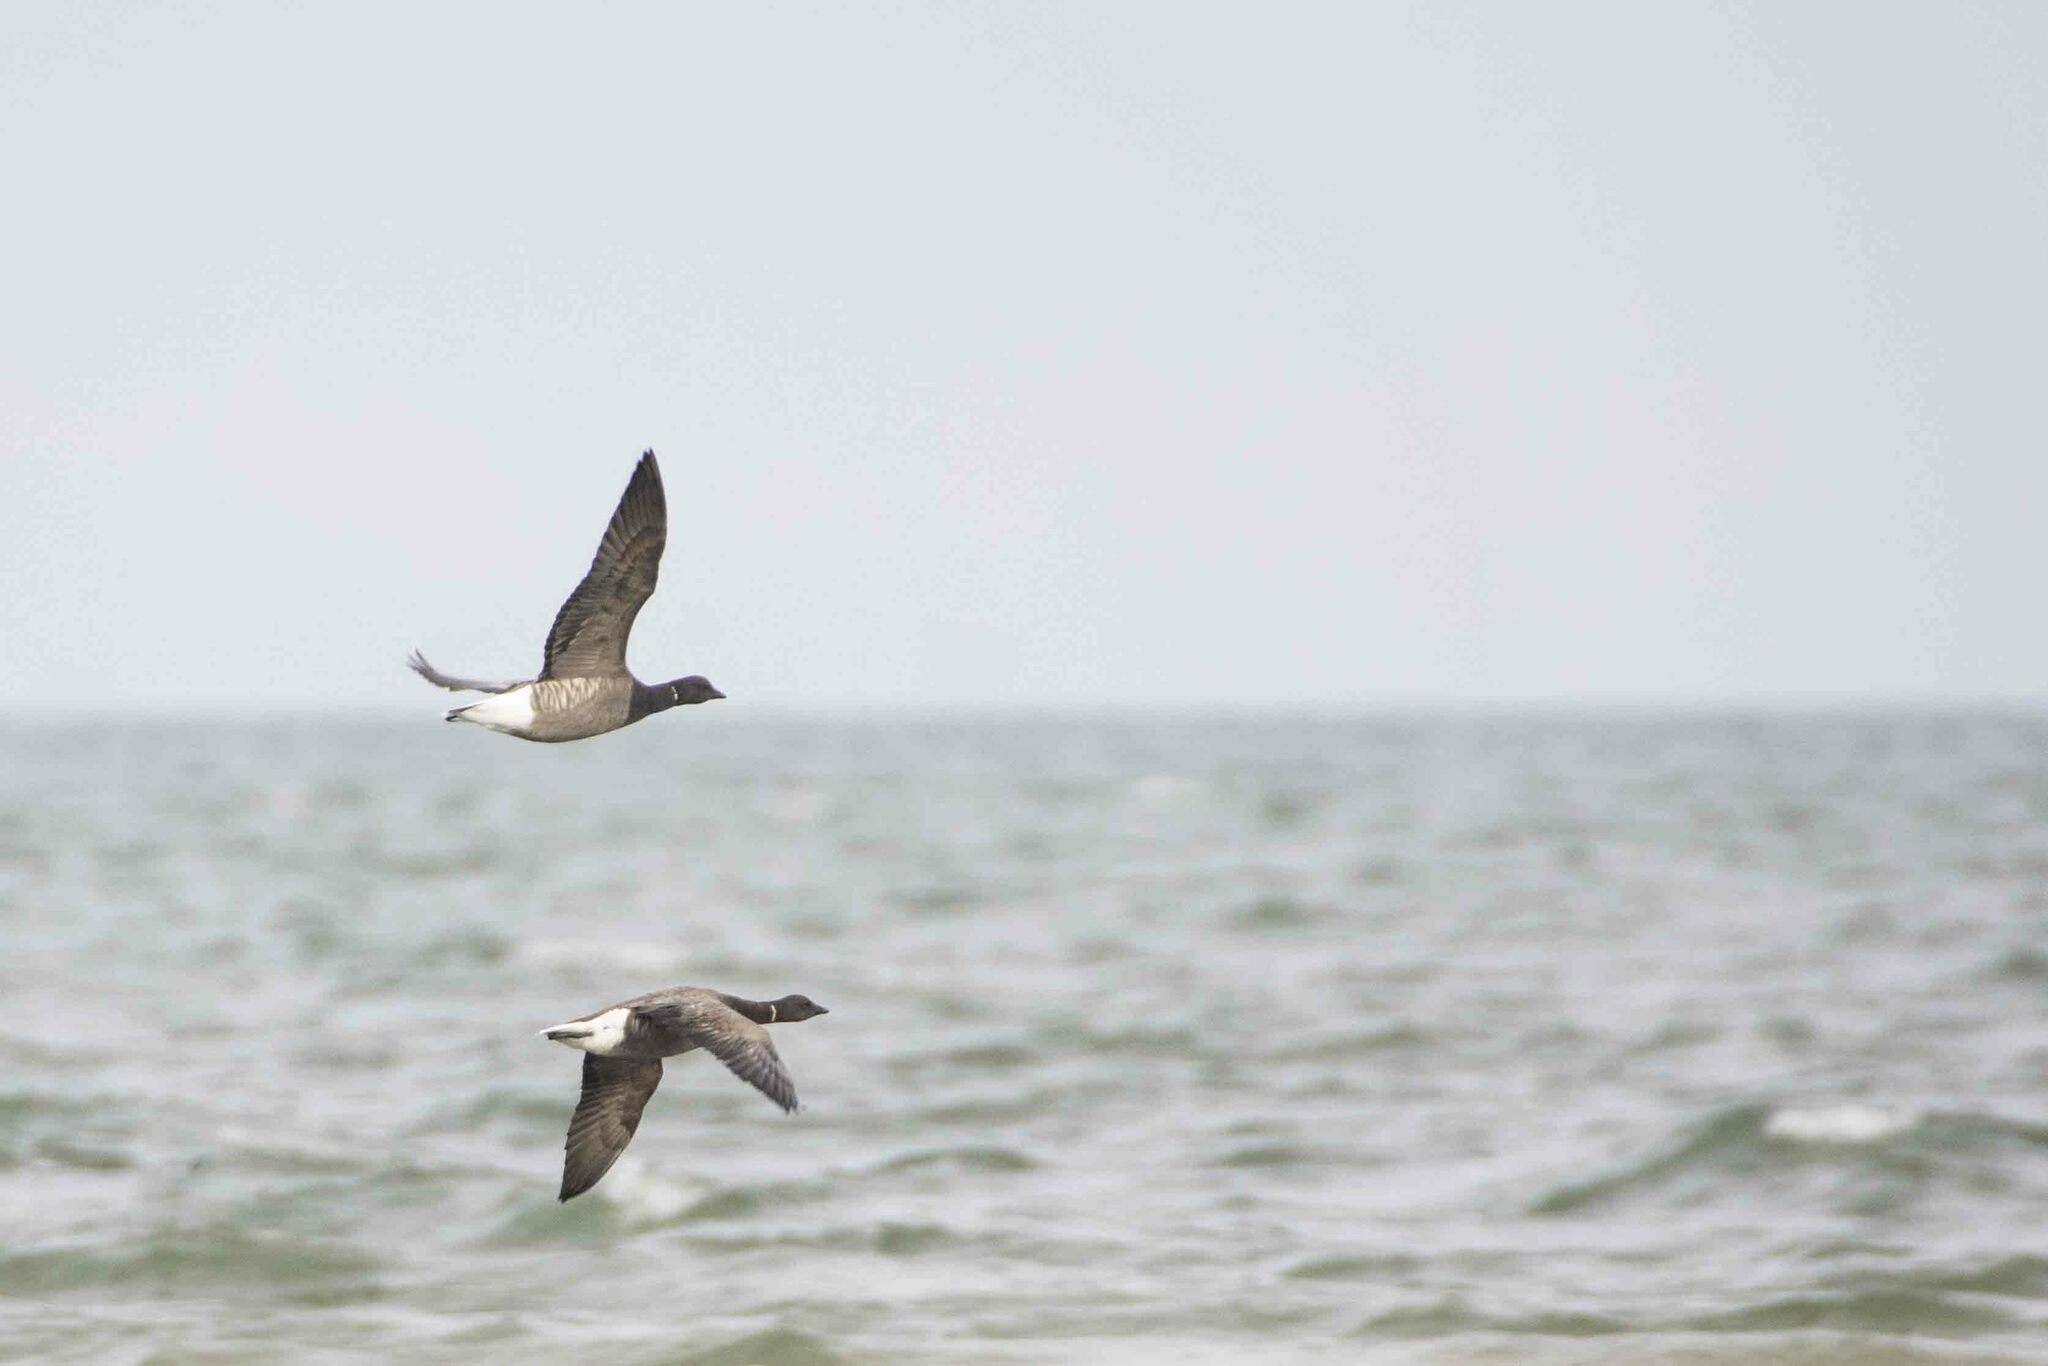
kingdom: Animalia
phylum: Chordata
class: Aves
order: Anseriformes
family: Anatidae
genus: Branta
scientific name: Branta bernicla
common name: Brant goose
